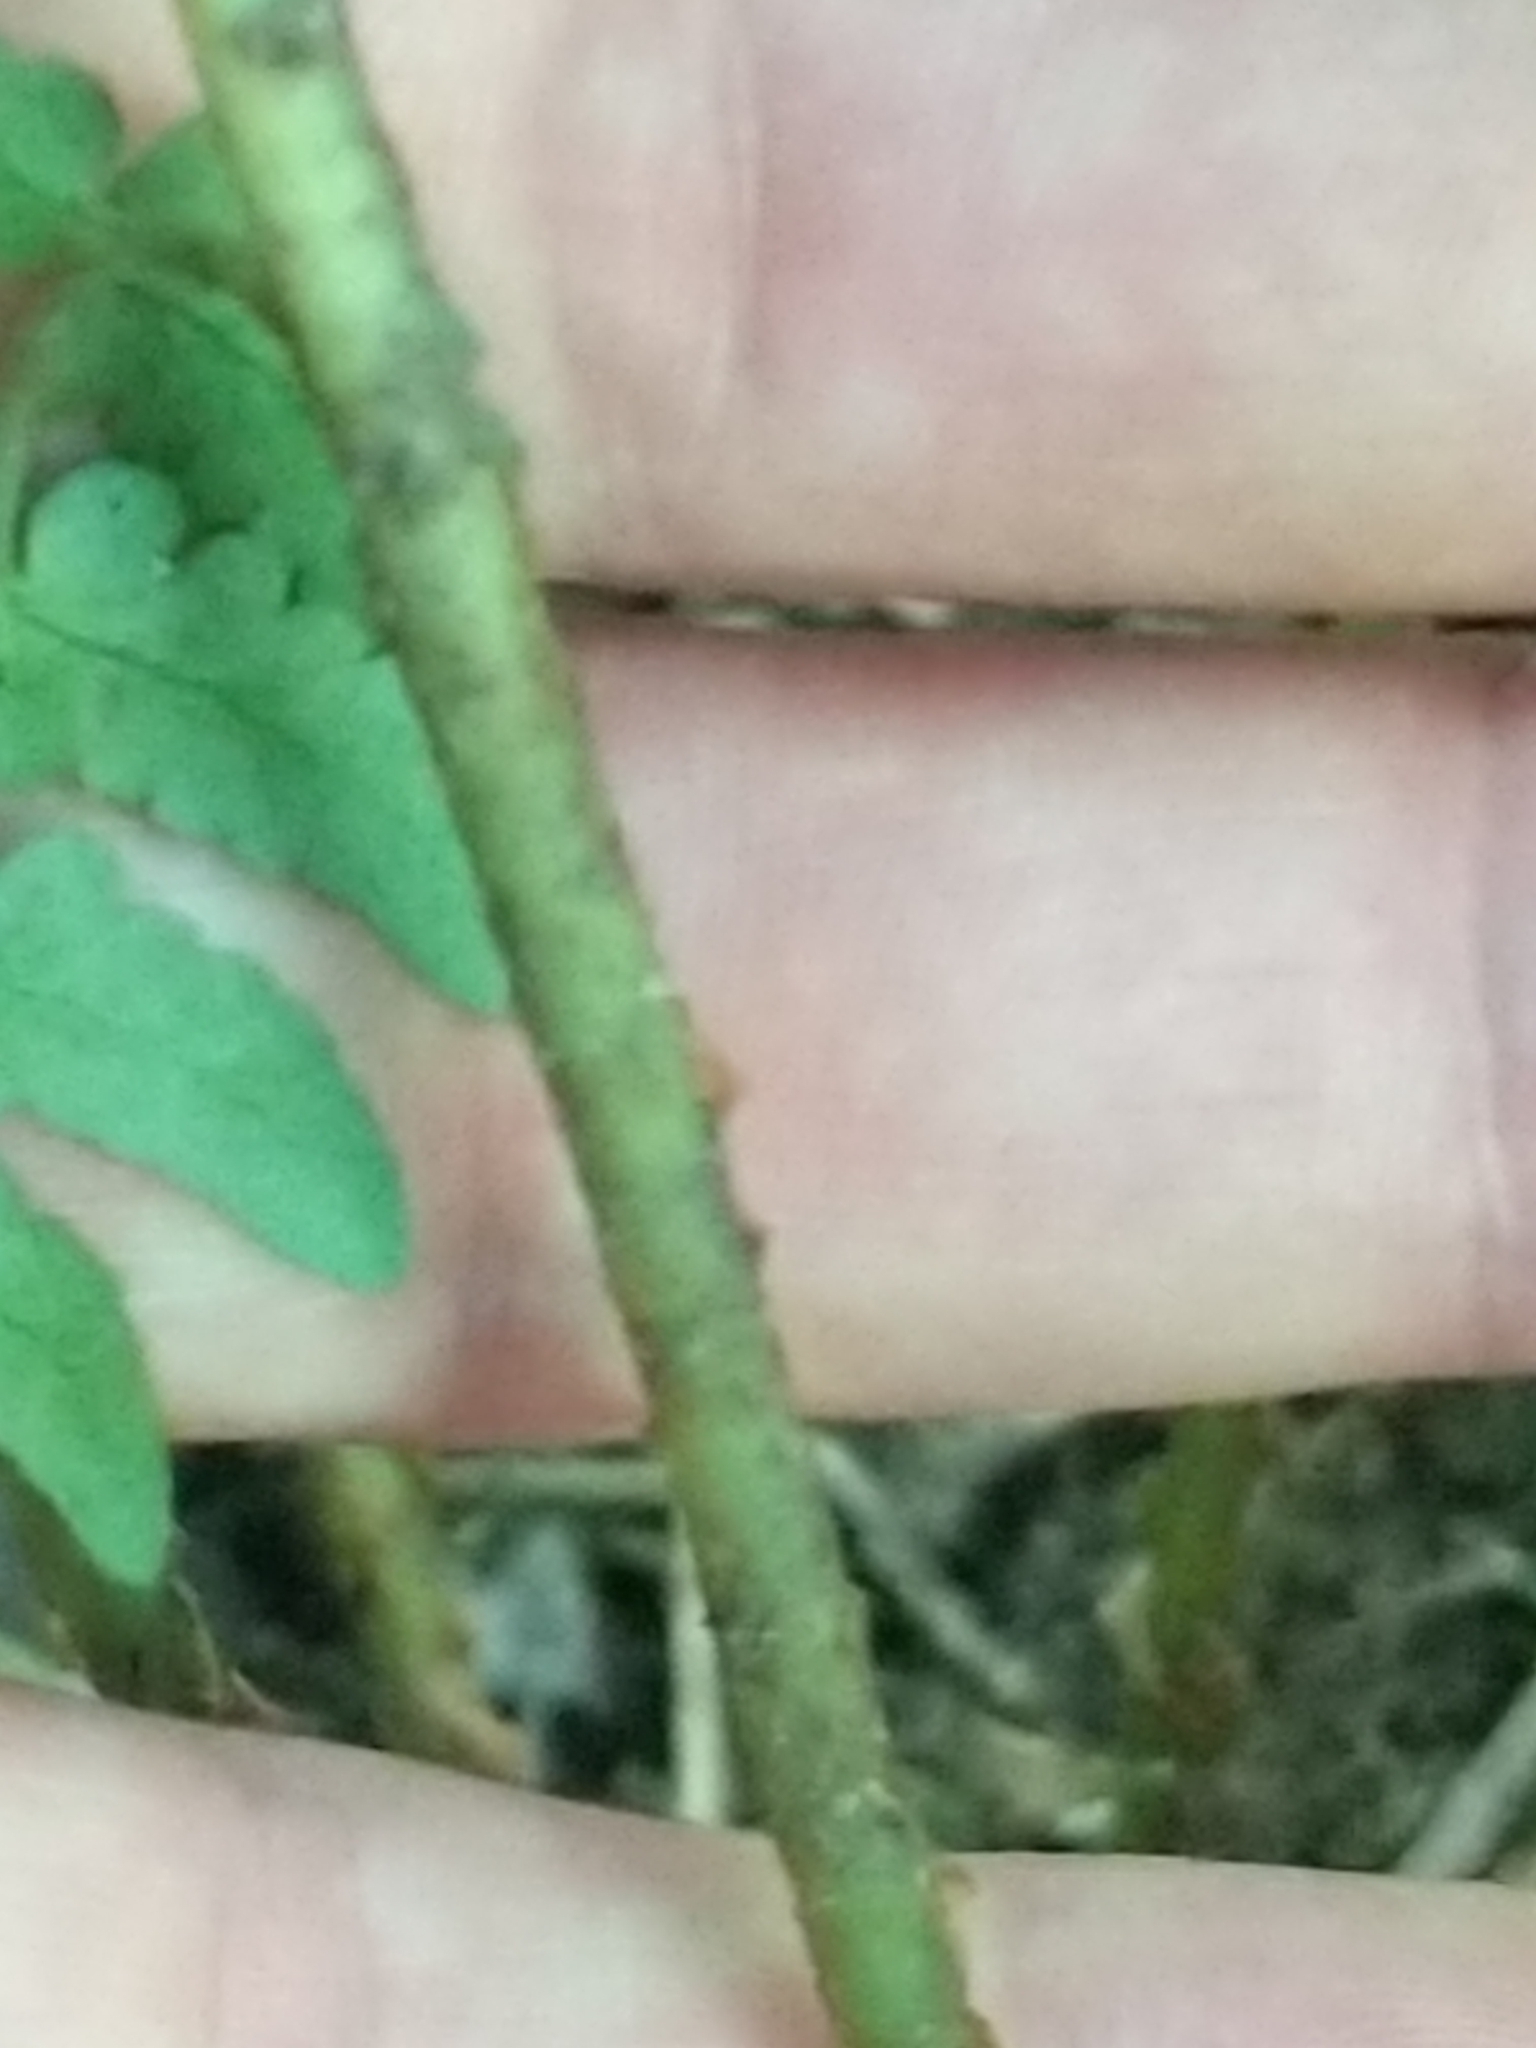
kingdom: Plantae
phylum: Tracheophyta
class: Polypodiopsida
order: Polypodiales
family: Dryopteridaceae
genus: Dryopteris
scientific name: Dryopteris marginalis
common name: Marginal wood fern
